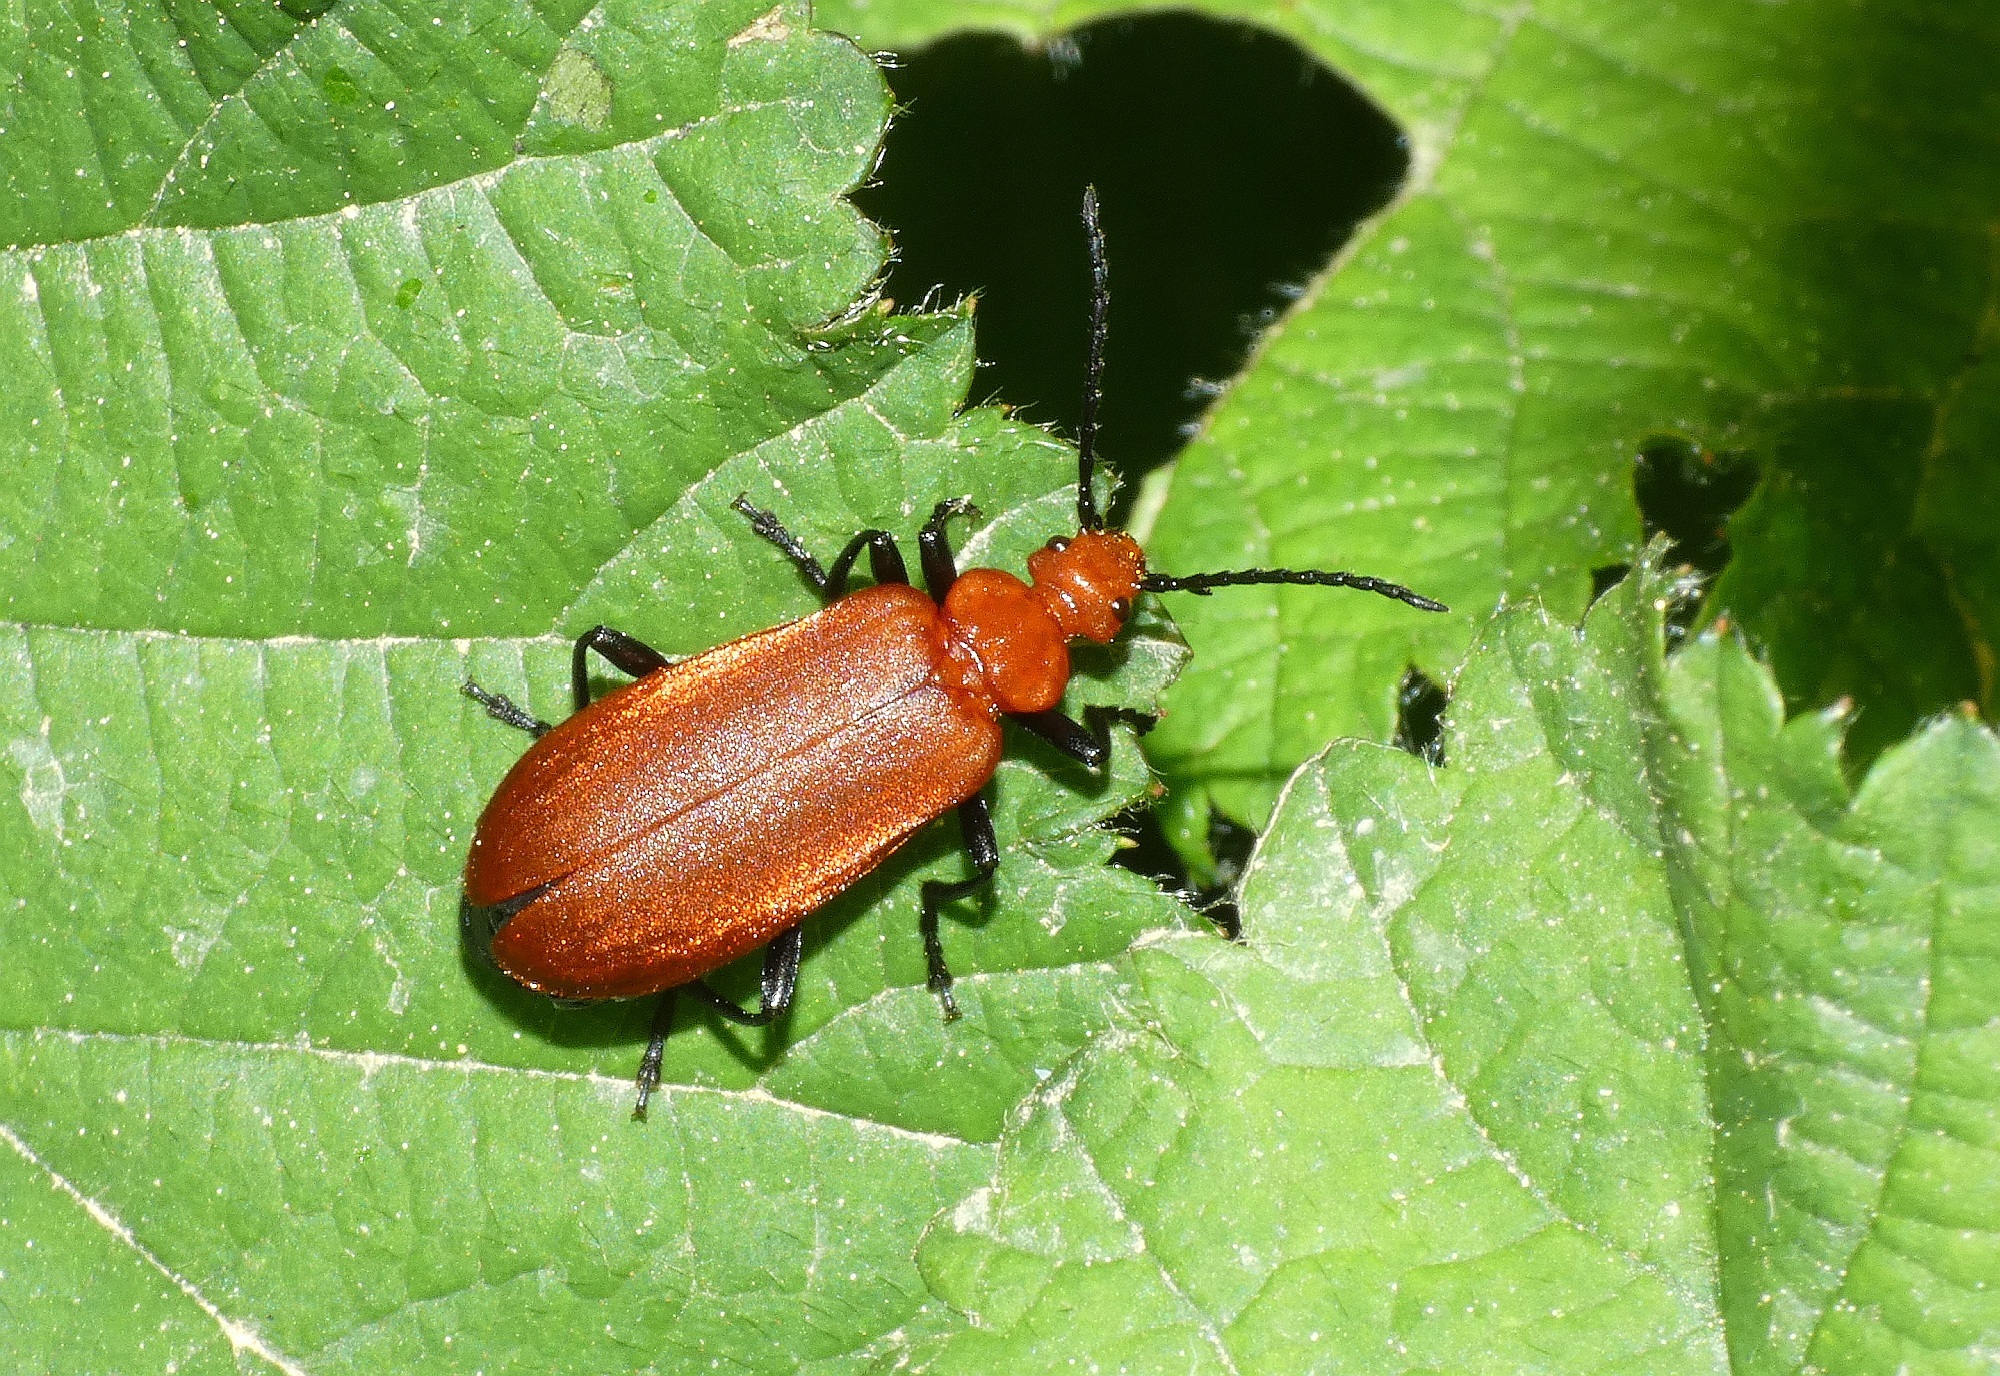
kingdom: Animalia
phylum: Arthropoda
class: Insecta
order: Coleoptera
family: Pyrochroidae
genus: Pyrochroa
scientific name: Pyrochroa serraticornis
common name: Red-headed cardinal beetle
